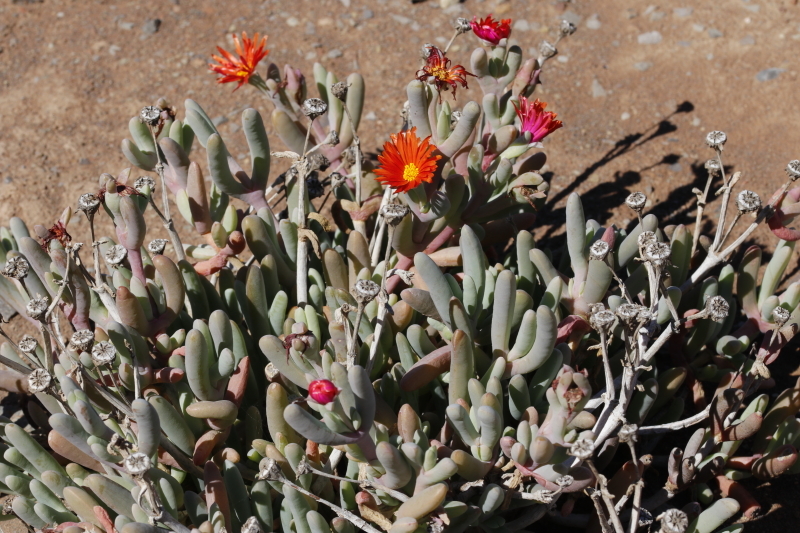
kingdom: Plantae
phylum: Tracheophyta
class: Magnoliopsida
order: Caryophyllales
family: Aizoaceae
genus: Malephora
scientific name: Malephora crocea
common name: Coppery mesemb
